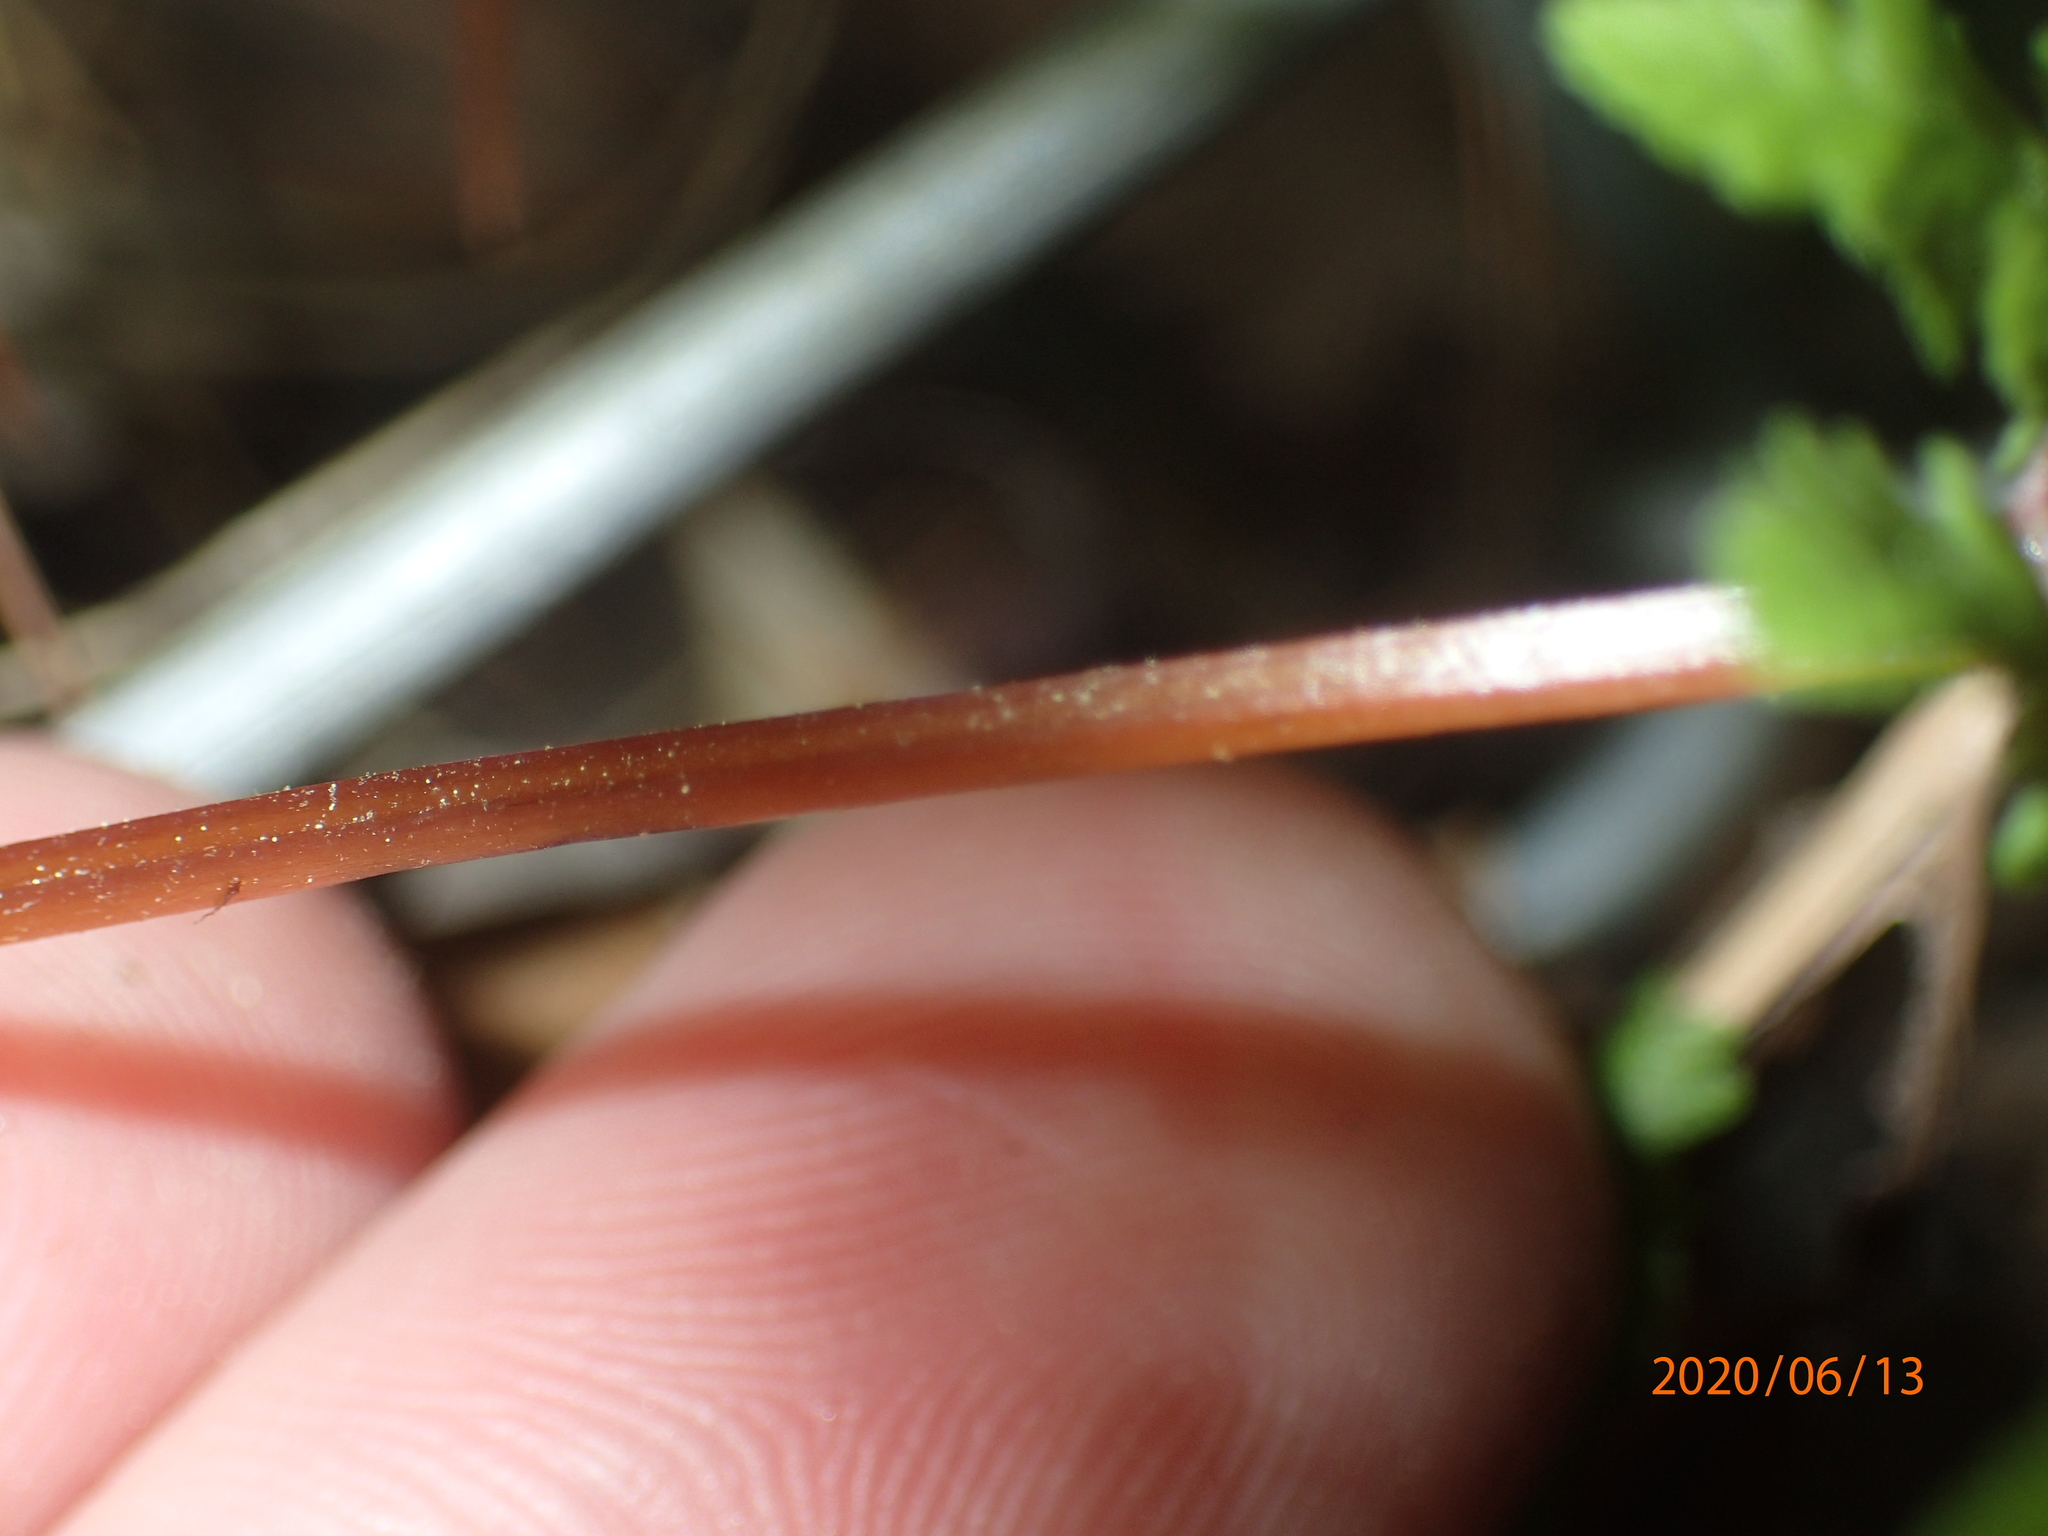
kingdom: Plantae
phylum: Tracheophyta
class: Polypodiopsida
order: Polypodiales
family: Cystopteridaceae
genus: Cystopteris
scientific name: Cystopteris bulbifera
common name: Bulblet bladder fern
